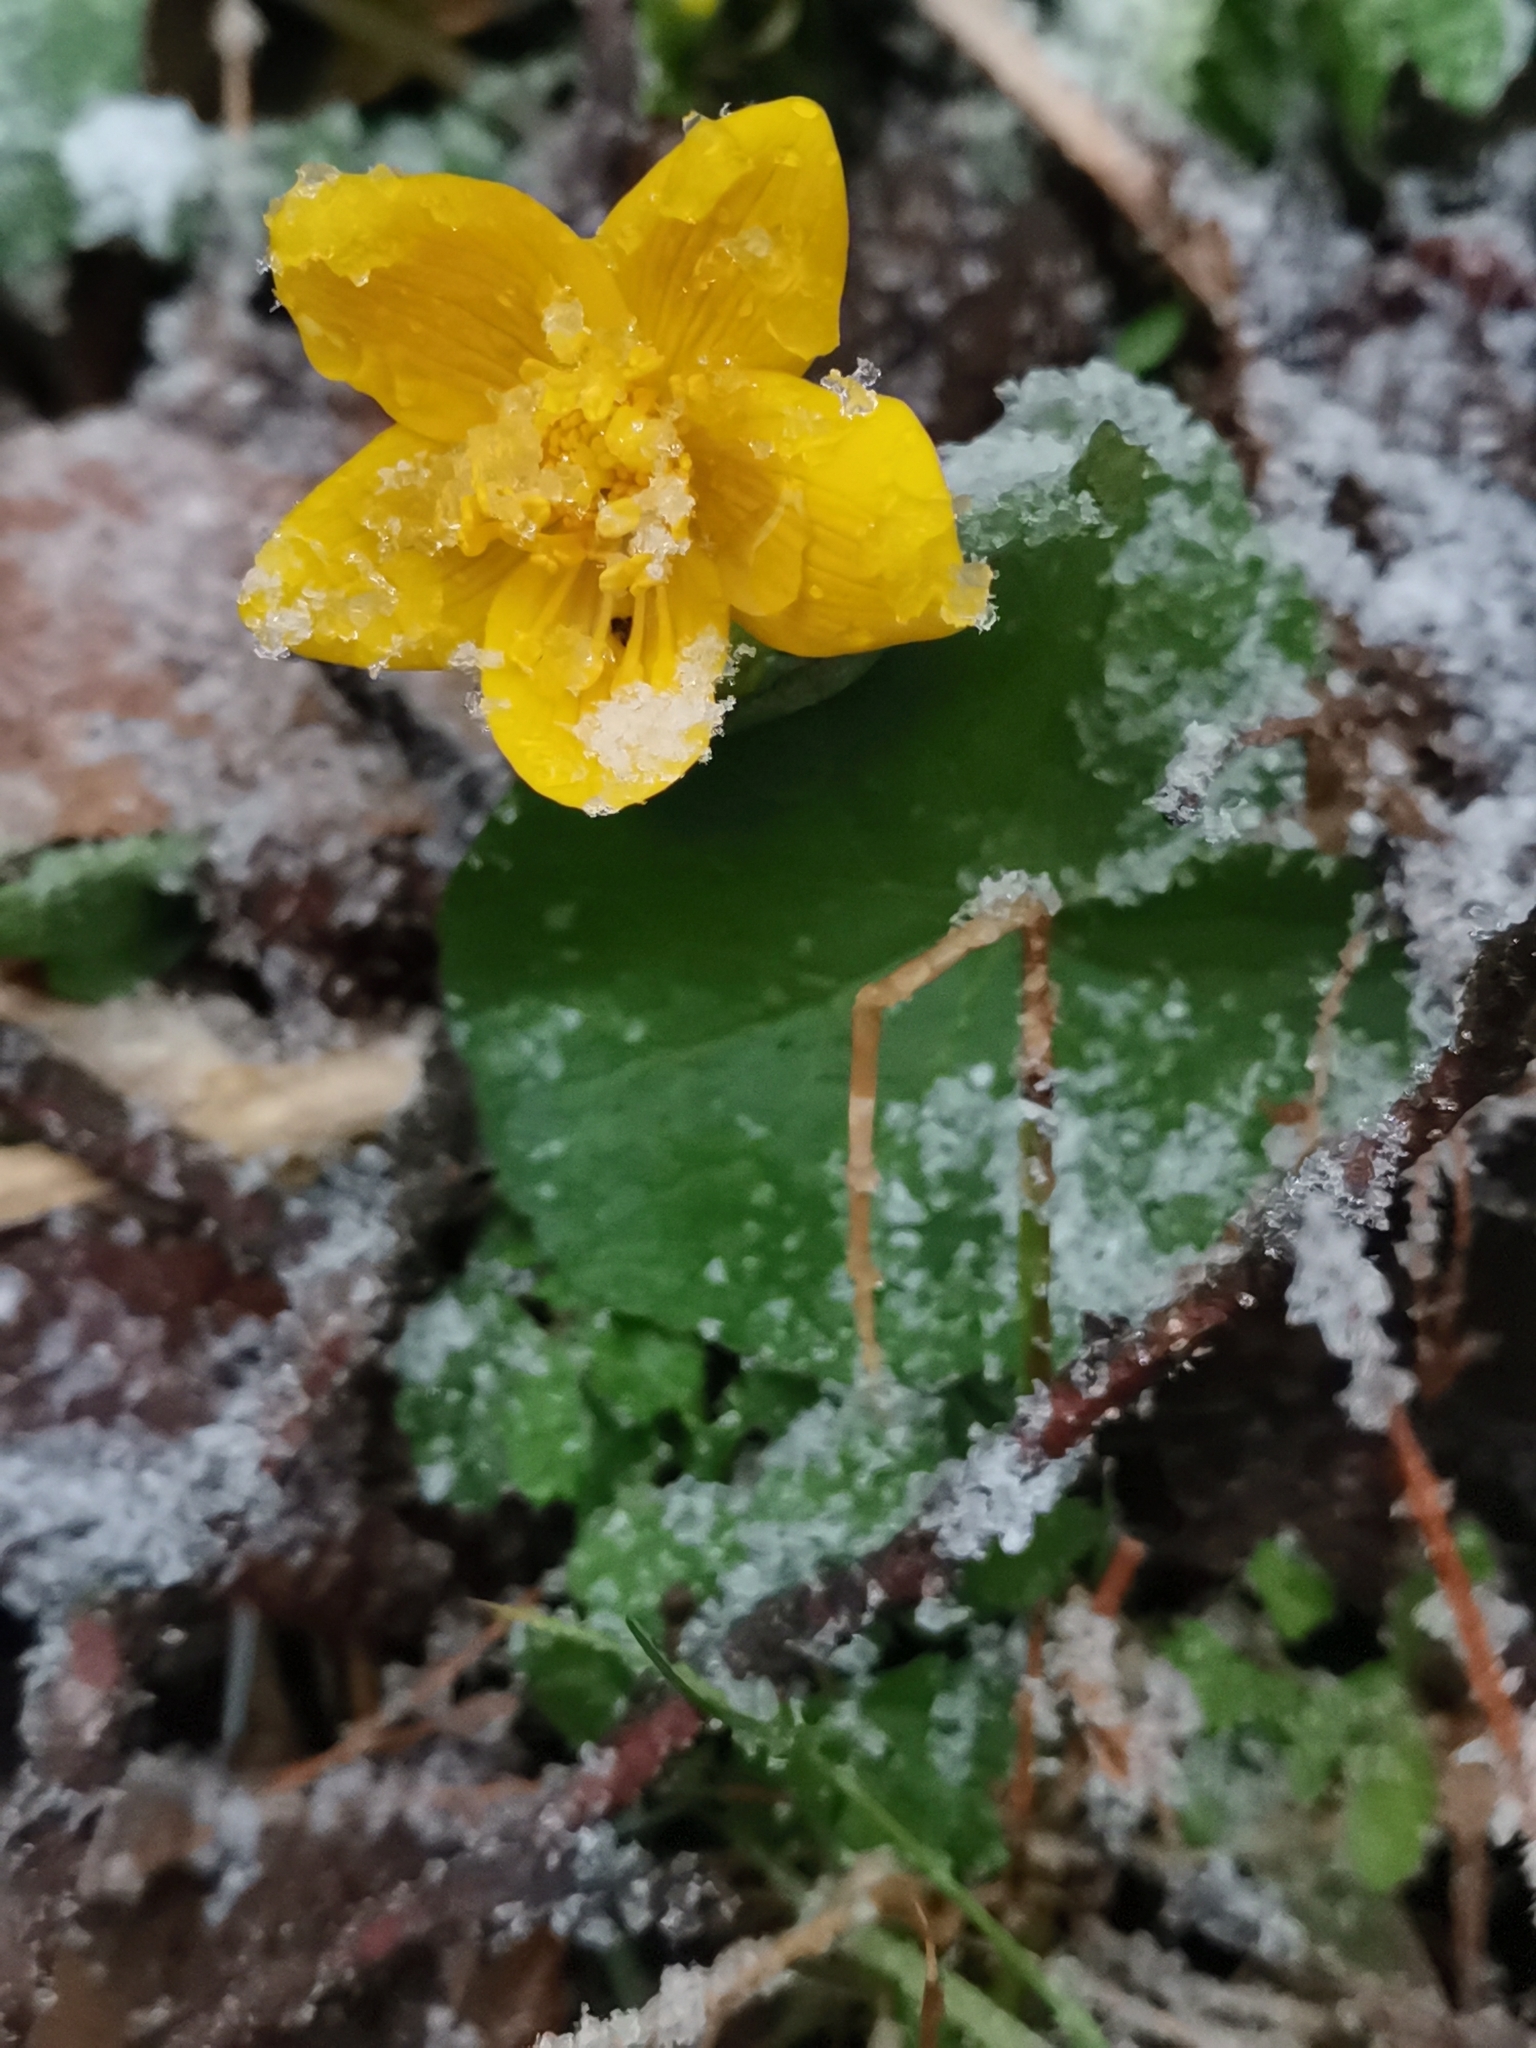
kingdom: Plantae
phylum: Tracheophyta
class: Magnoliopsida
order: Ranunculales
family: Ranunculaceae
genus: Caltha
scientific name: Caltha palustris
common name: Marsh marigold
